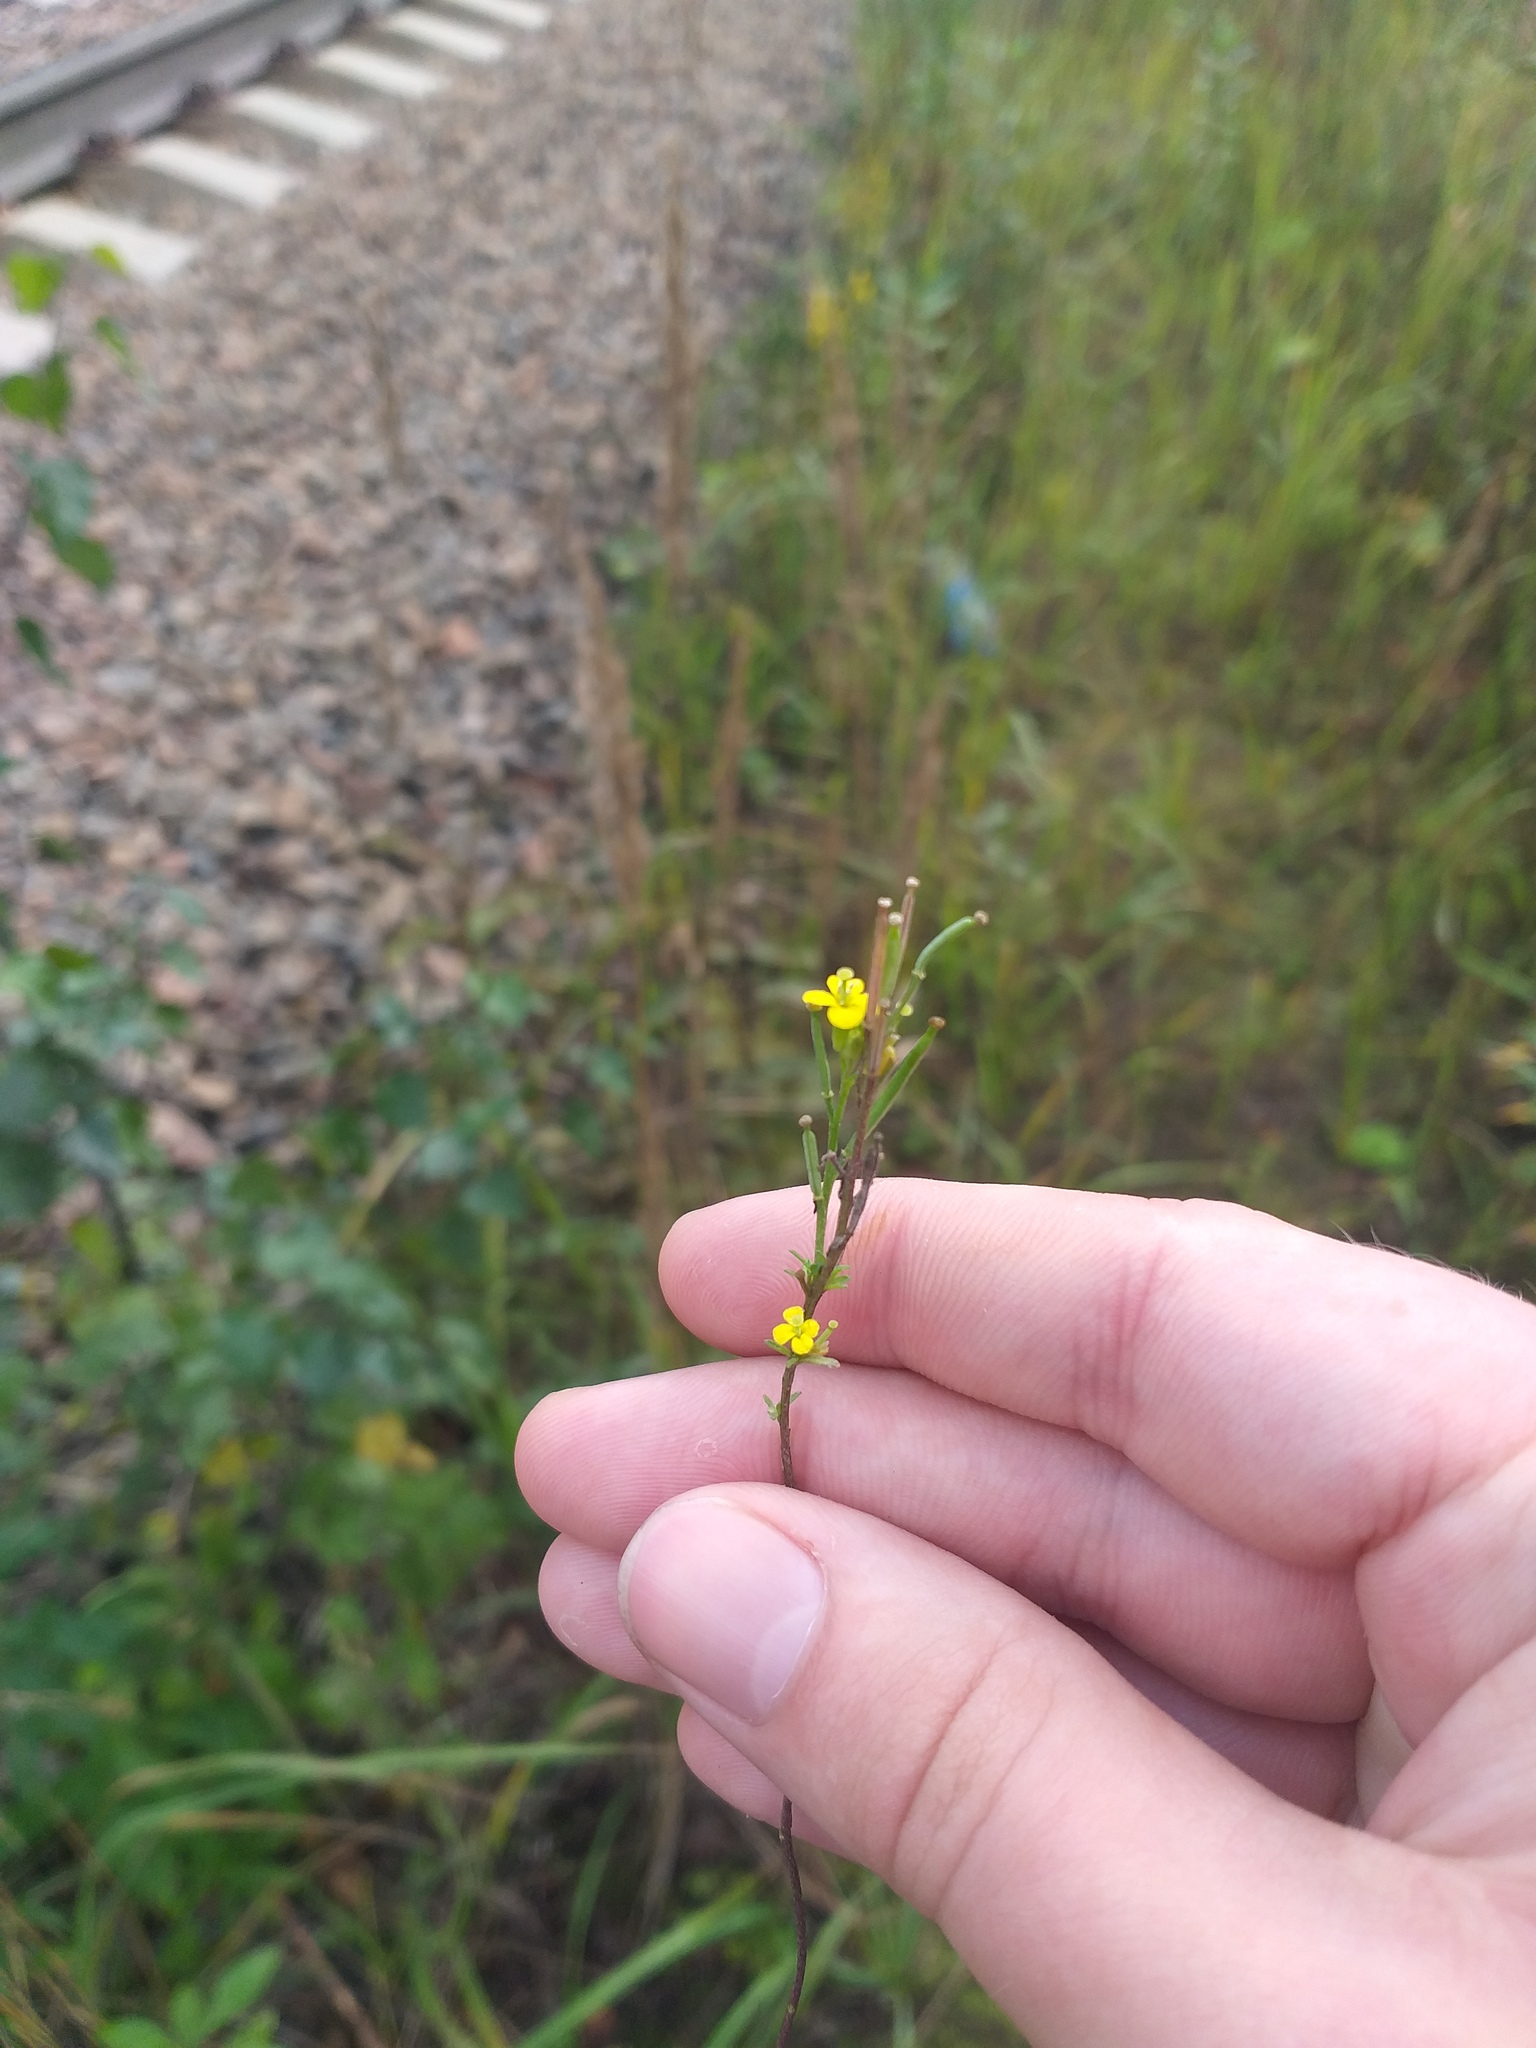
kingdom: Plantae
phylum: Tracheophyta
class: Magnoliopsida
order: Brassicales
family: Brassicaceae
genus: Erysimum
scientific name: Erysimum hieraciifolium
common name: European wallflower
